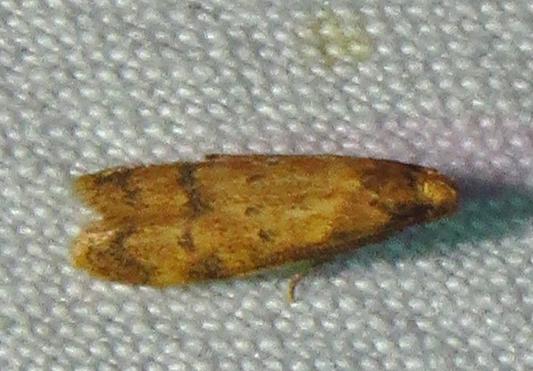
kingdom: Animalia
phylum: Arthropoda
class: Insecta
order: Lepidoptera
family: Autostichidae
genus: Gerdana
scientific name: Gerdana caritella
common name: Gerdana moth
